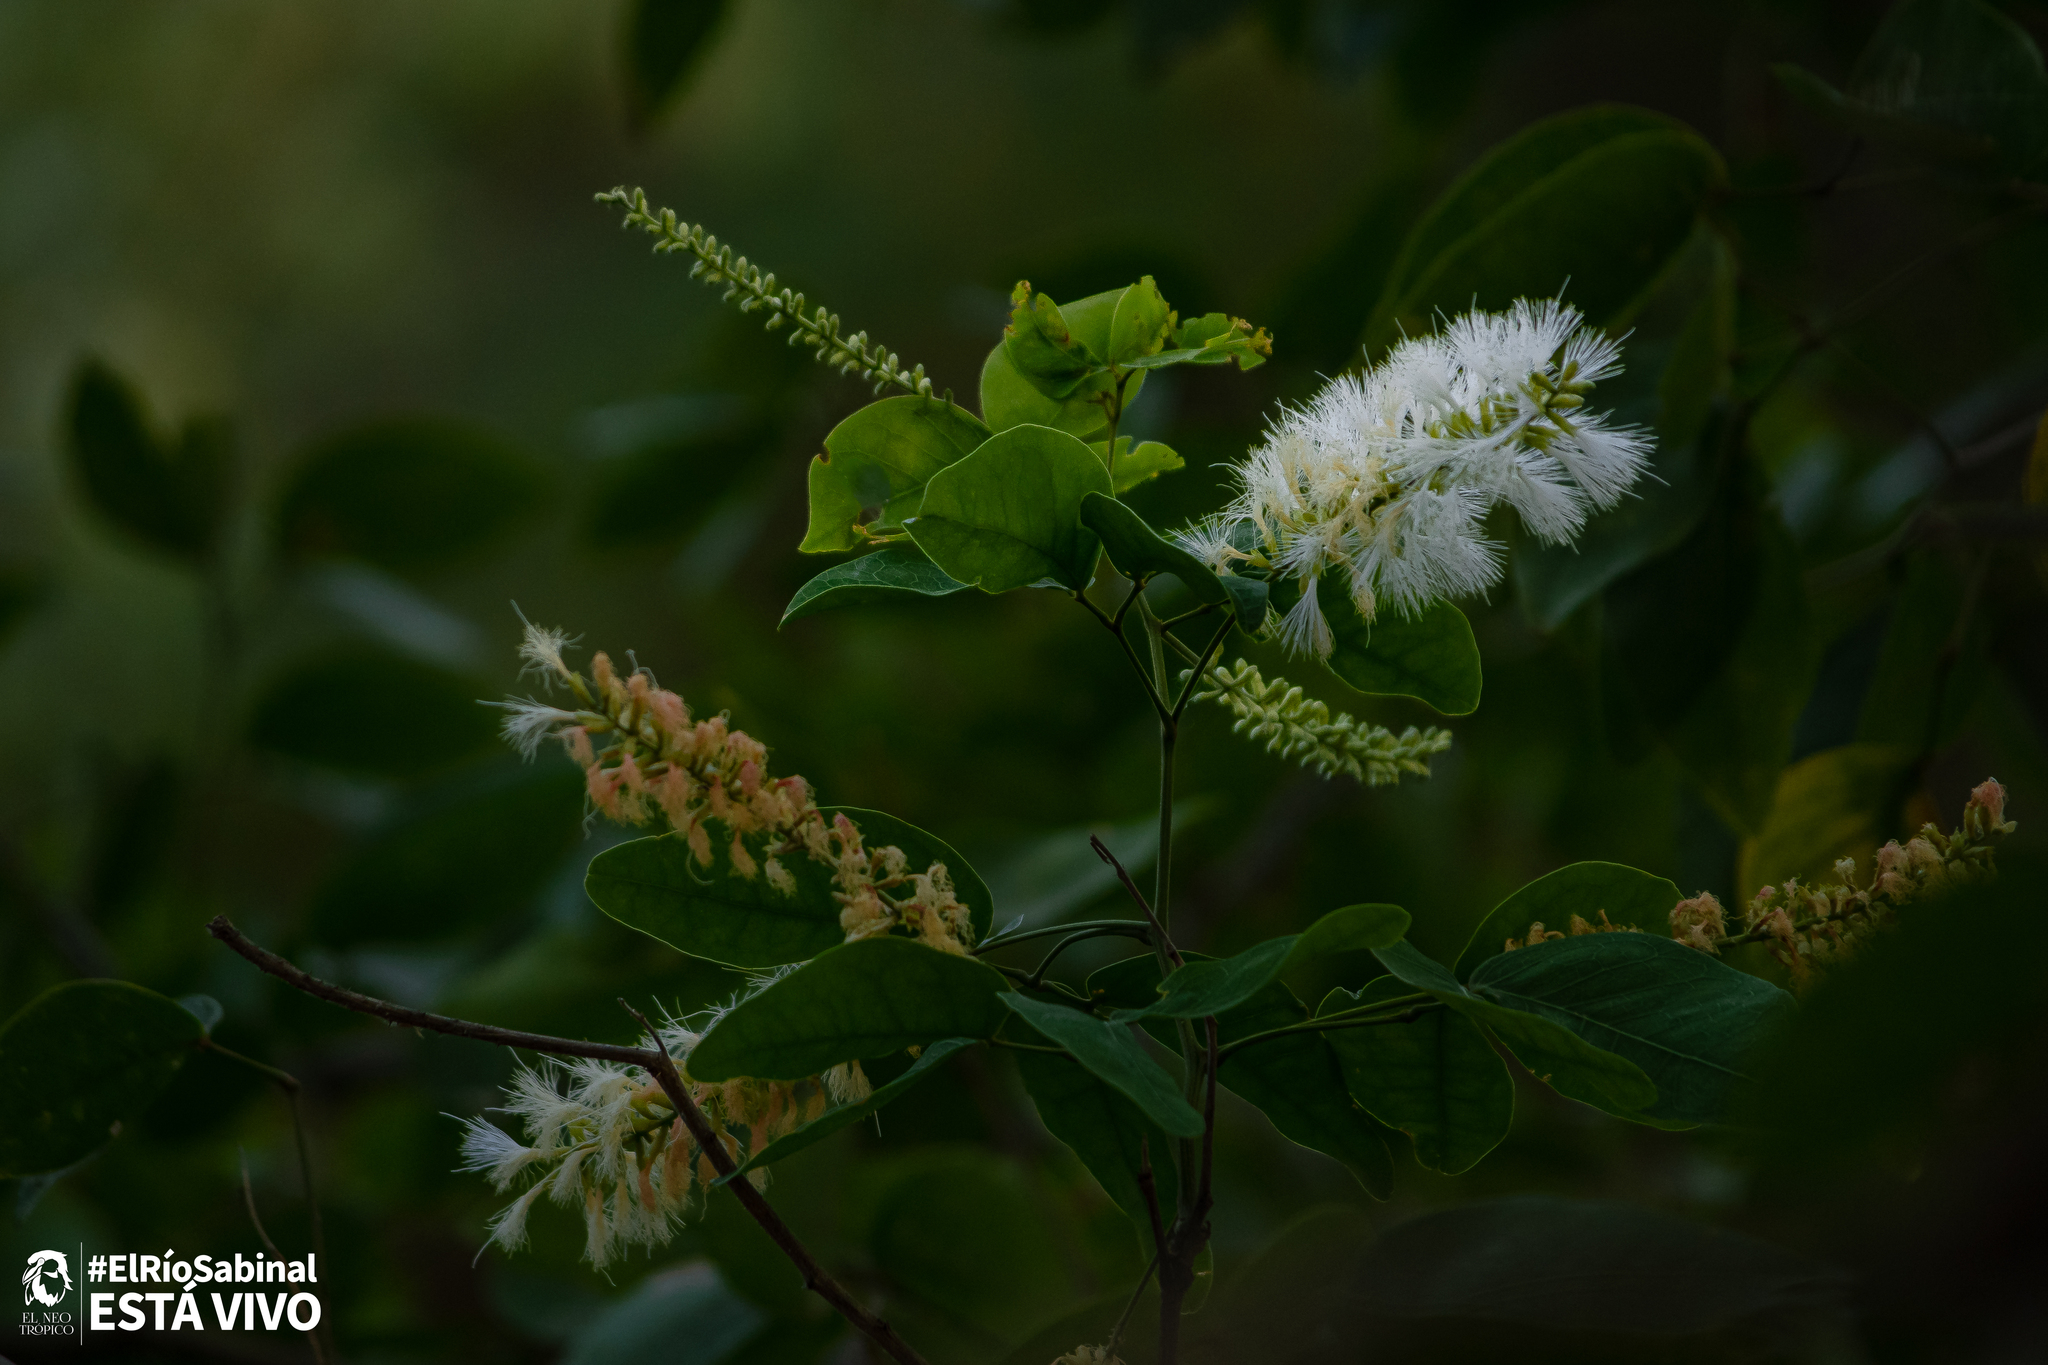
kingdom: Plantae
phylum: Tracheophyta
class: Magnoliopsida
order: Fabales
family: Fabaceae
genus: Pithecellobium
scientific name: Pithecellobium lanceolatum
